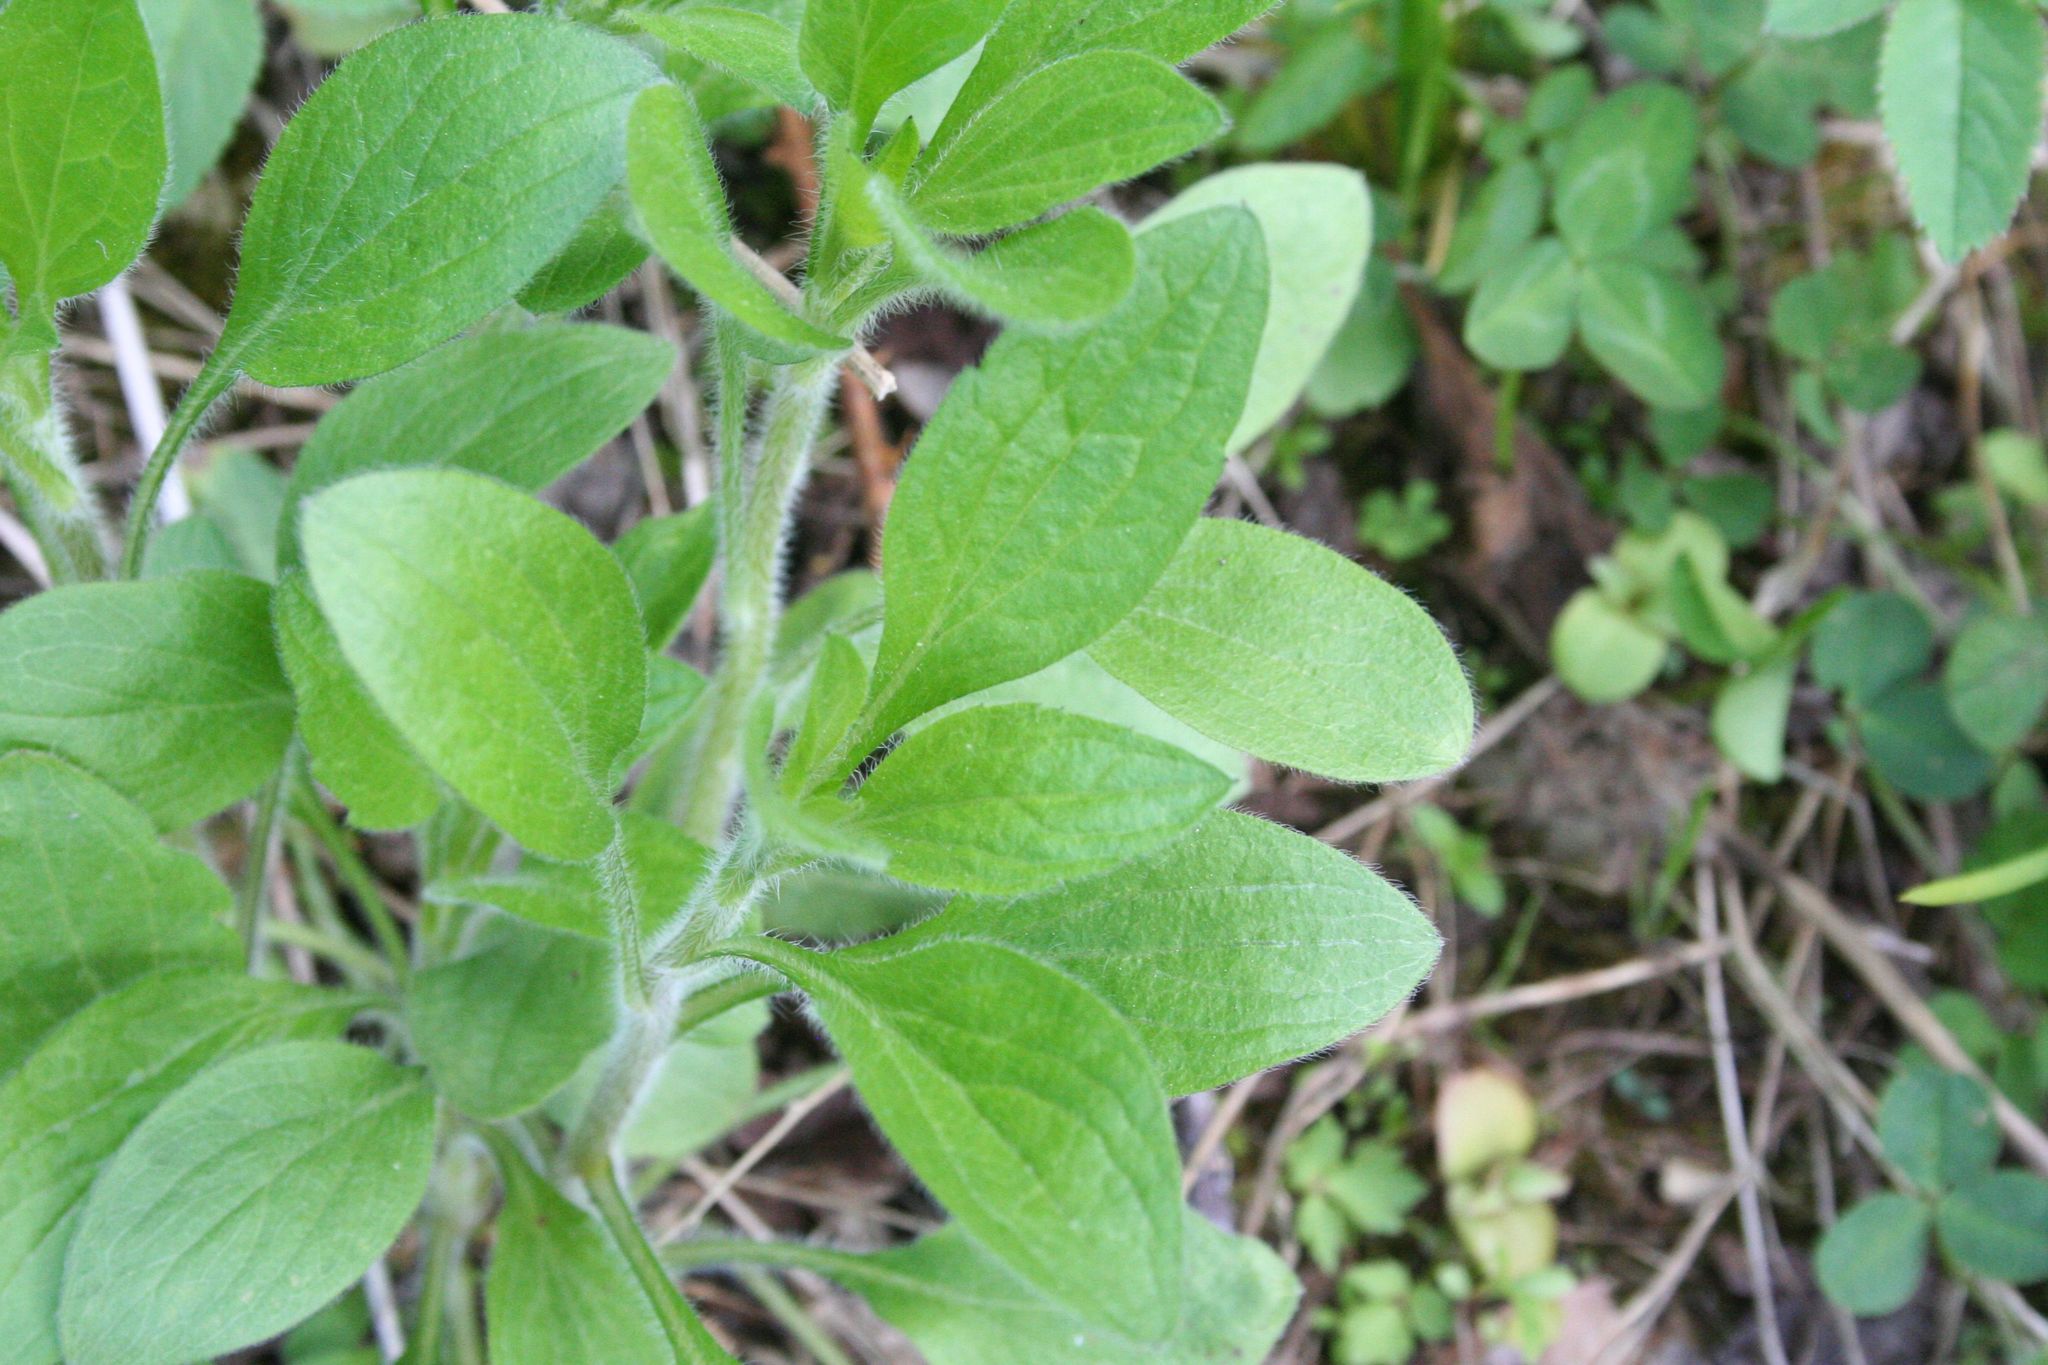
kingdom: Plantae
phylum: Tracheophyta
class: Magnoliopsida
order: Asterales
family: Asteraceae
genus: Erigeron
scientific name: Erigeron annuus
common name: Tall fleabane
